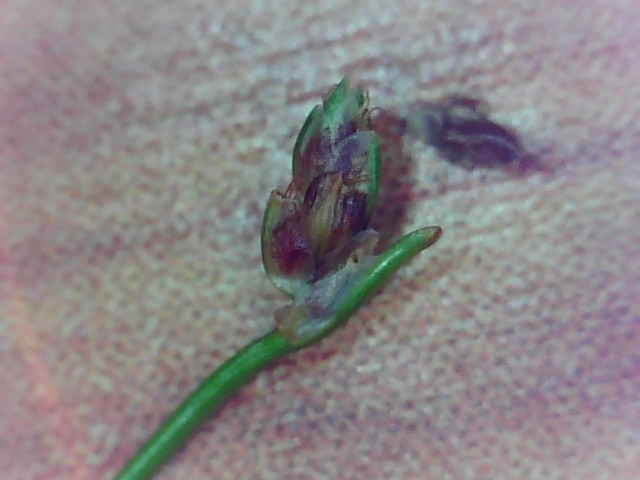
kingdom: Plantae
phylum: Tracheophyta
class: Liliopsida
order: Poales
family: Cyperaceae
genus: Isolepis
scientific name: Isolepis cernua
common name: Slender club-rush
